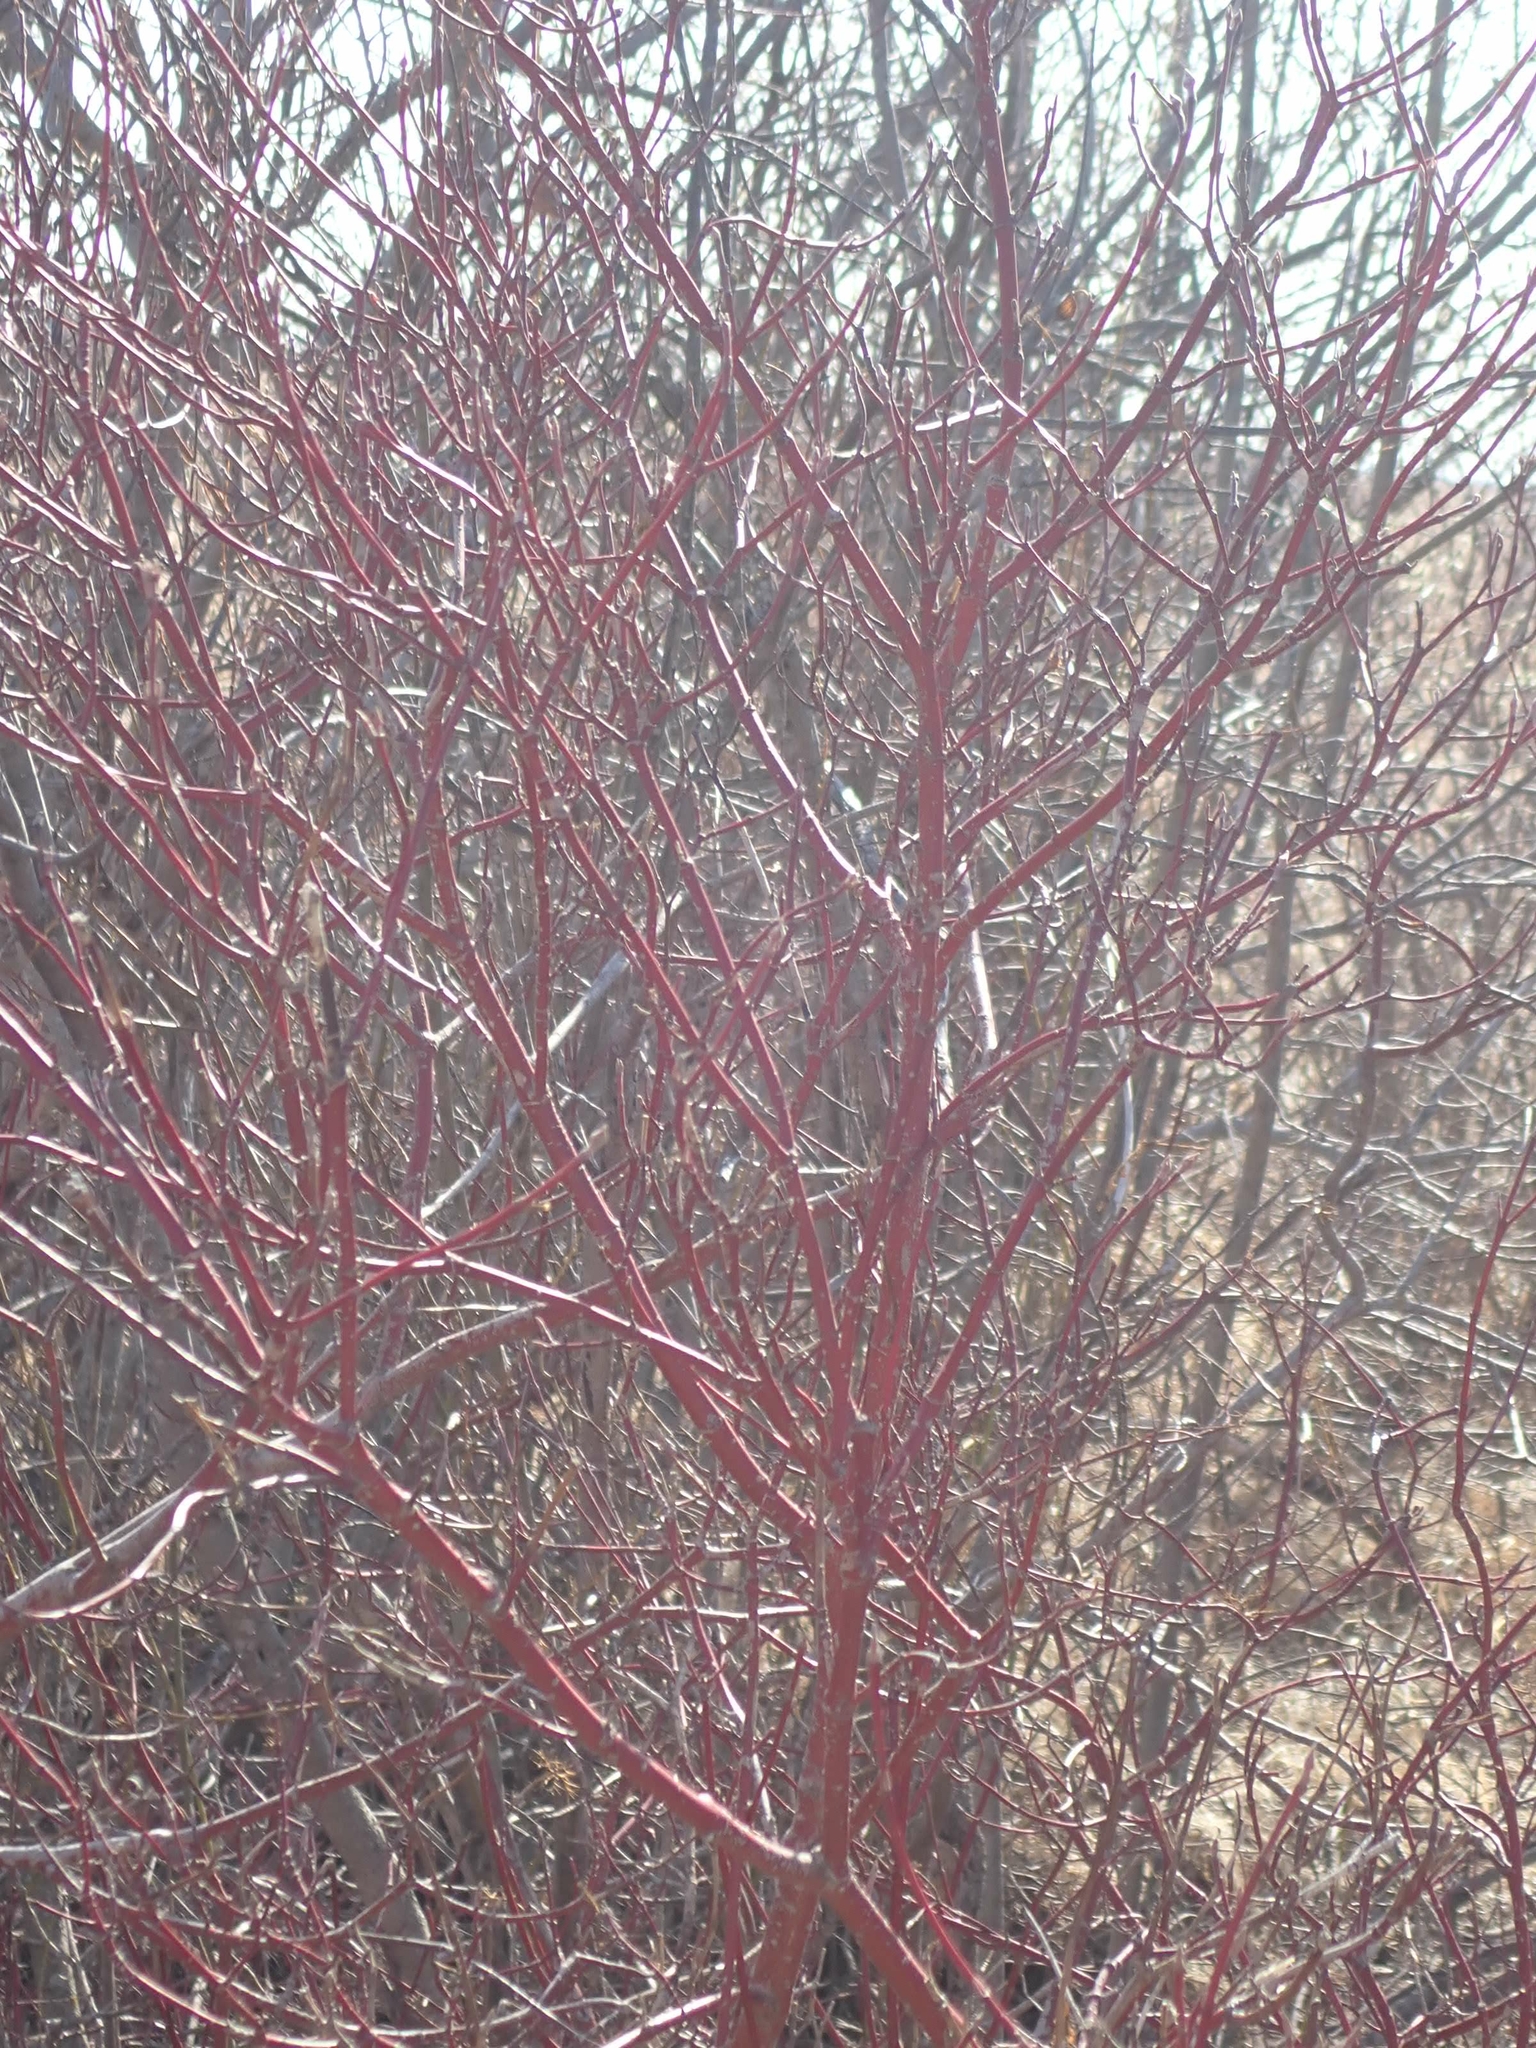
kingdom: Plantae
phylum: Tracheophyta
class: Magnoliopsida
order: Cornales
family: Cornaceae
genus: Cornus
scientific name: Cornus sericea
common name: Red-osier dogwood
